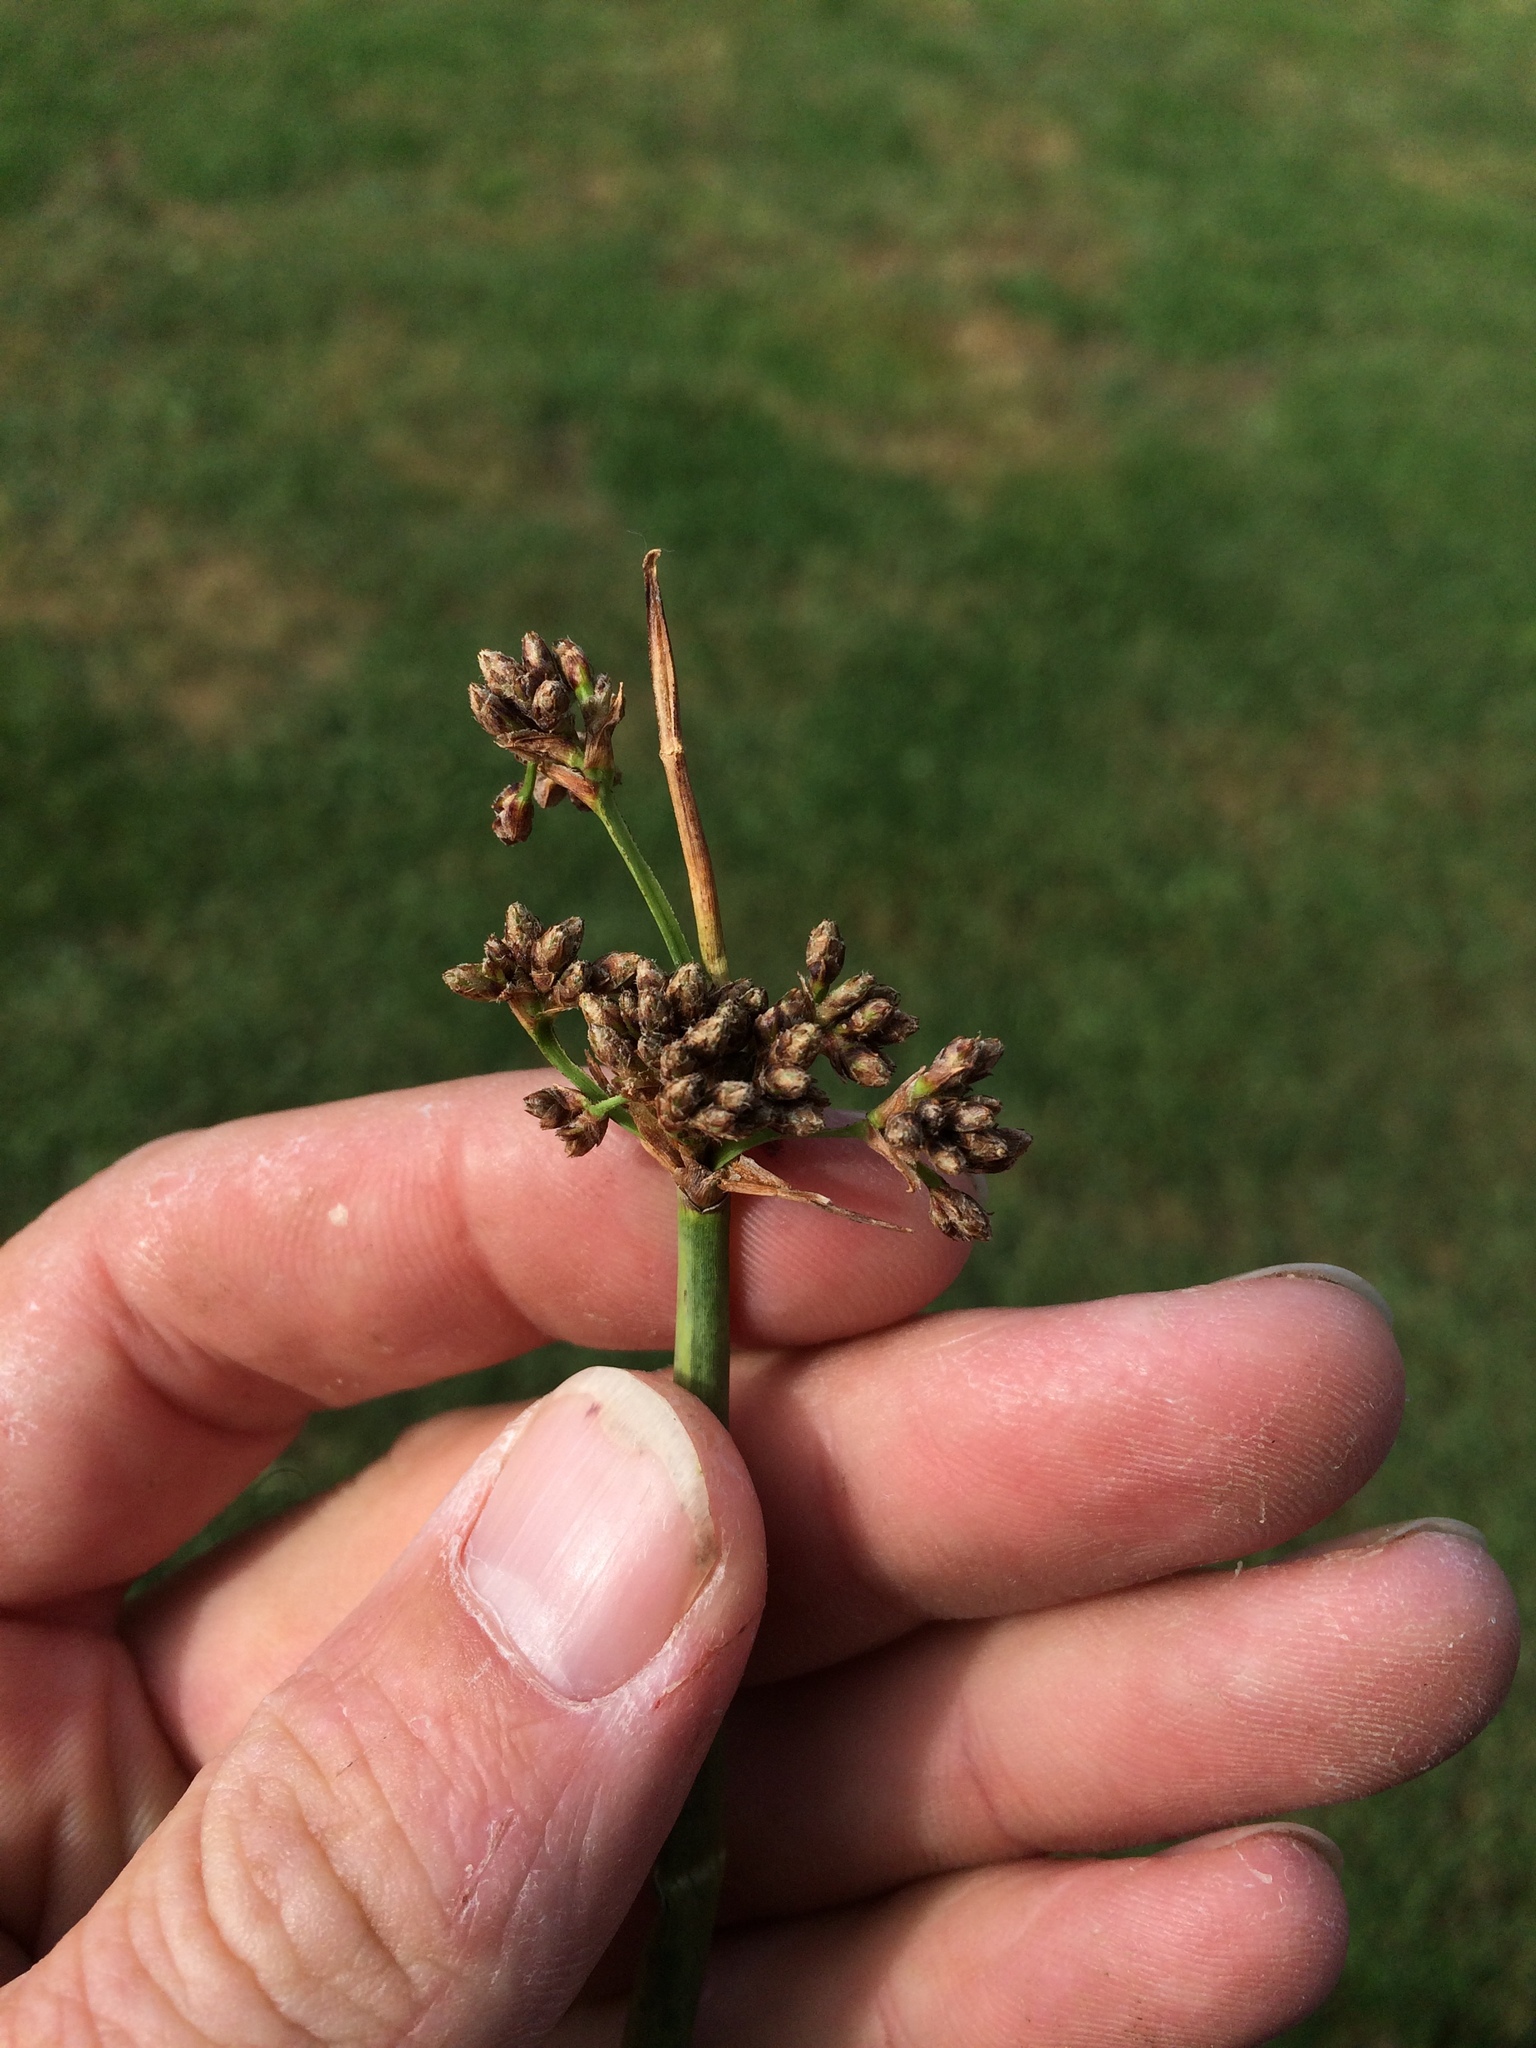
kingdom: Plantae
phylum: Tracheophyta
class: Liliopsida
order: Poales
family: Cyperaceae
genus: Schoenoplectus
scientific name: Schoenoplectus tabernaemontani
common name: Grey club-rush
